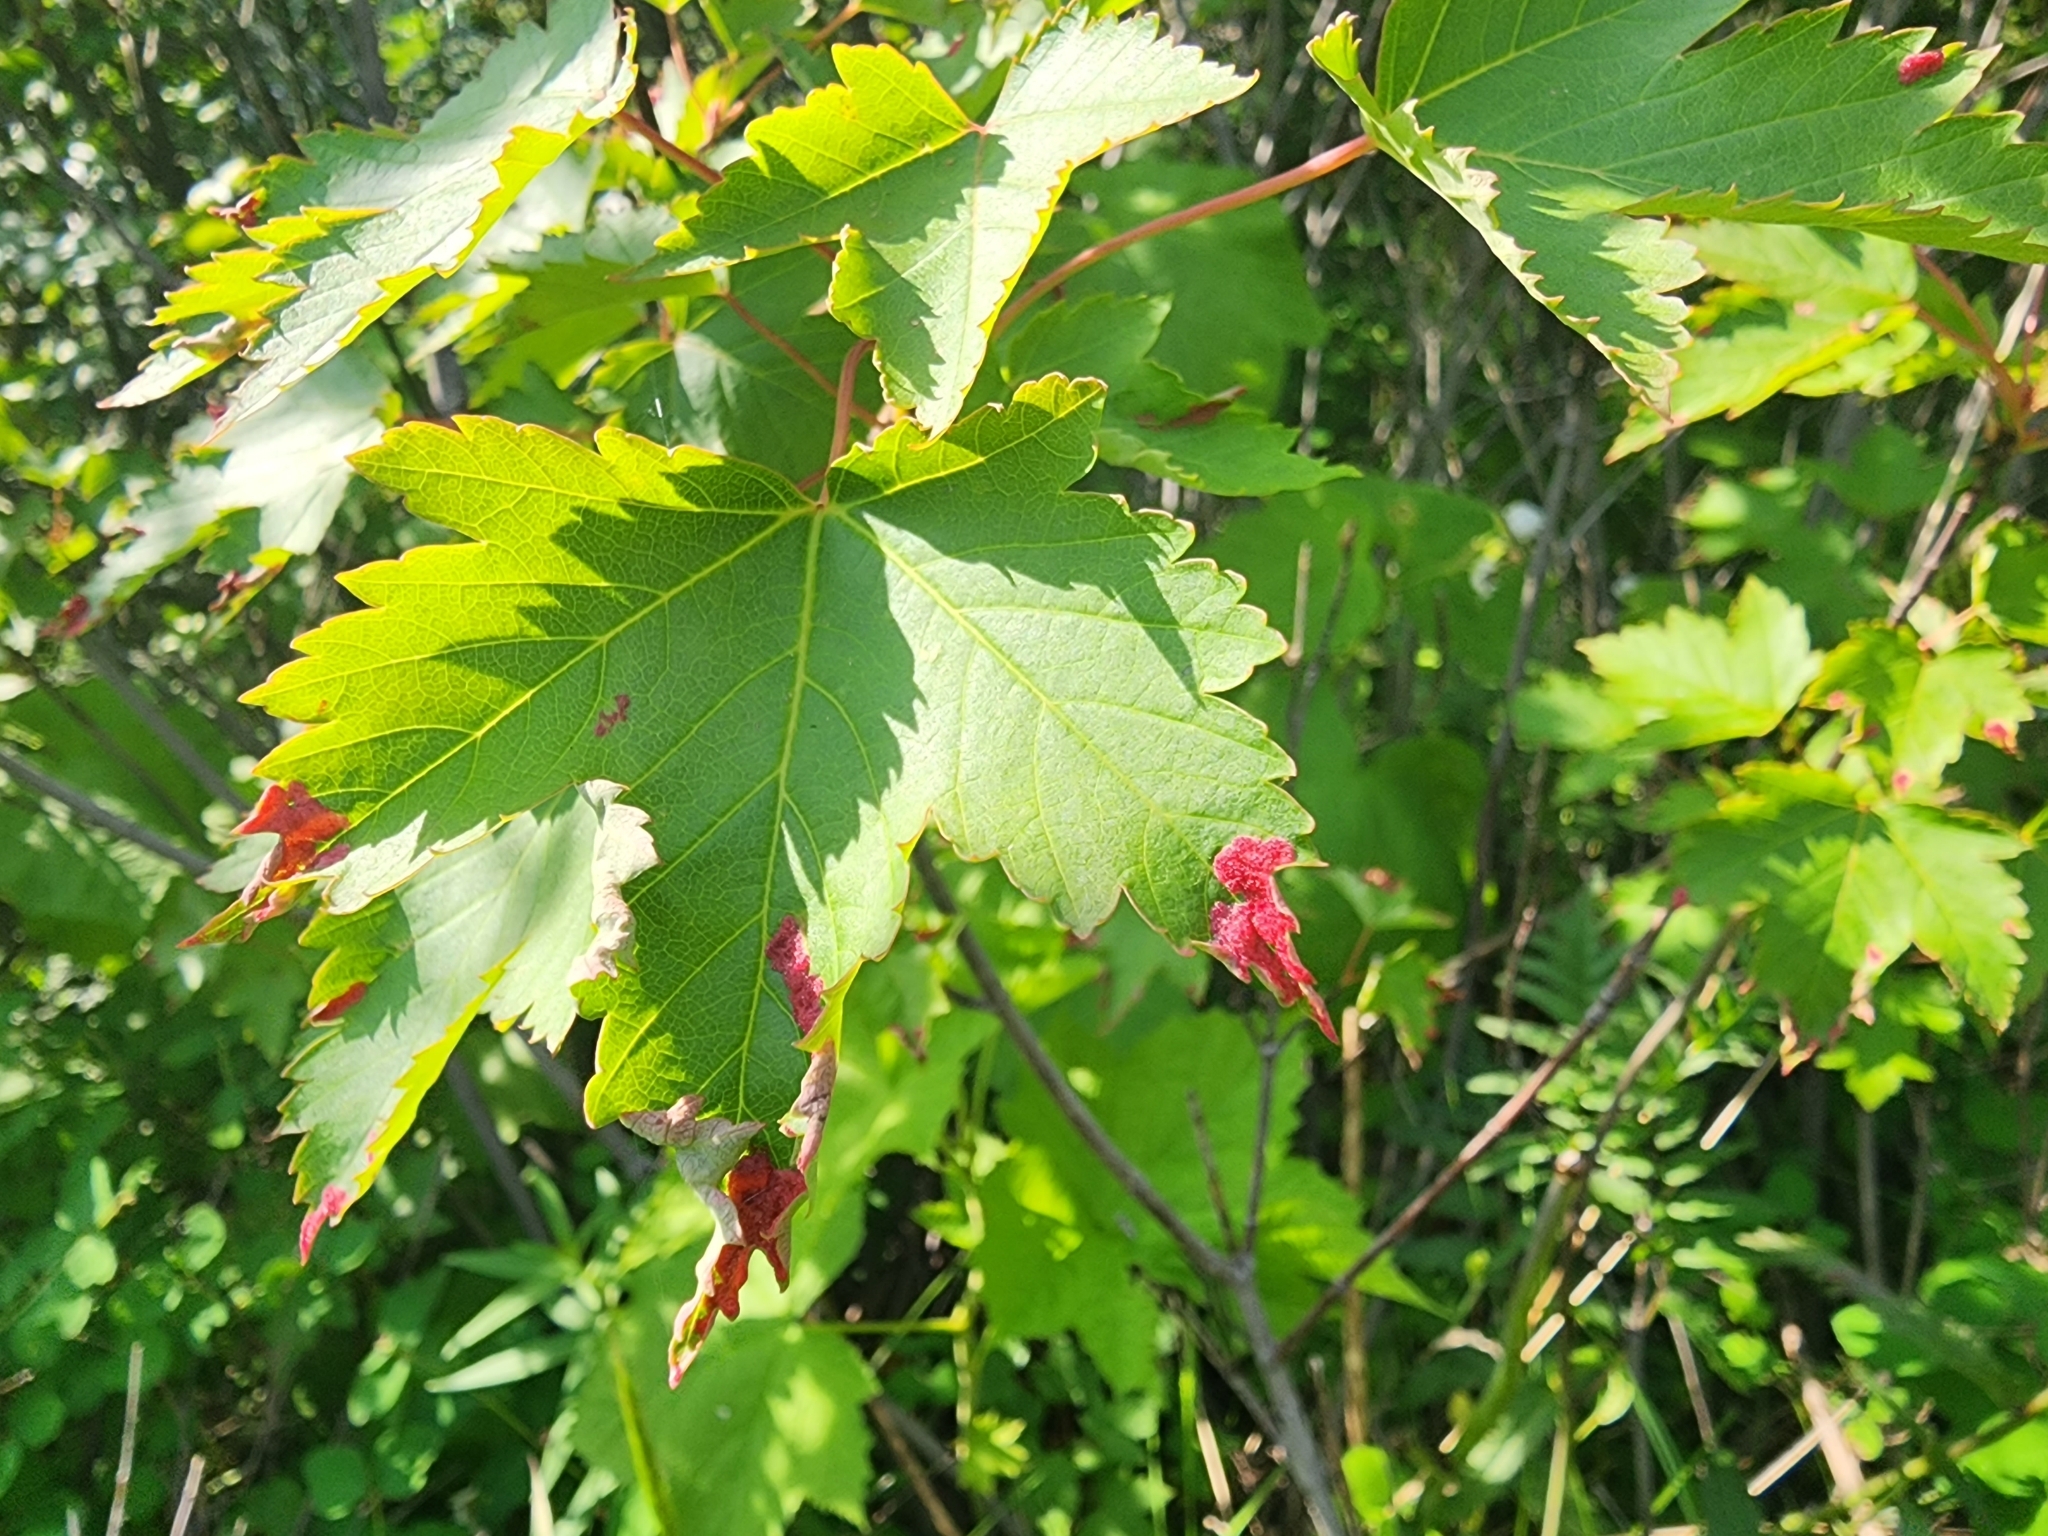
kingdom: Animalia
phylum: Arthropoda
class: Arachnida
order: Trombidiformes
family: Eriophyidae
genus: Aceria
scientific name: Aceria
